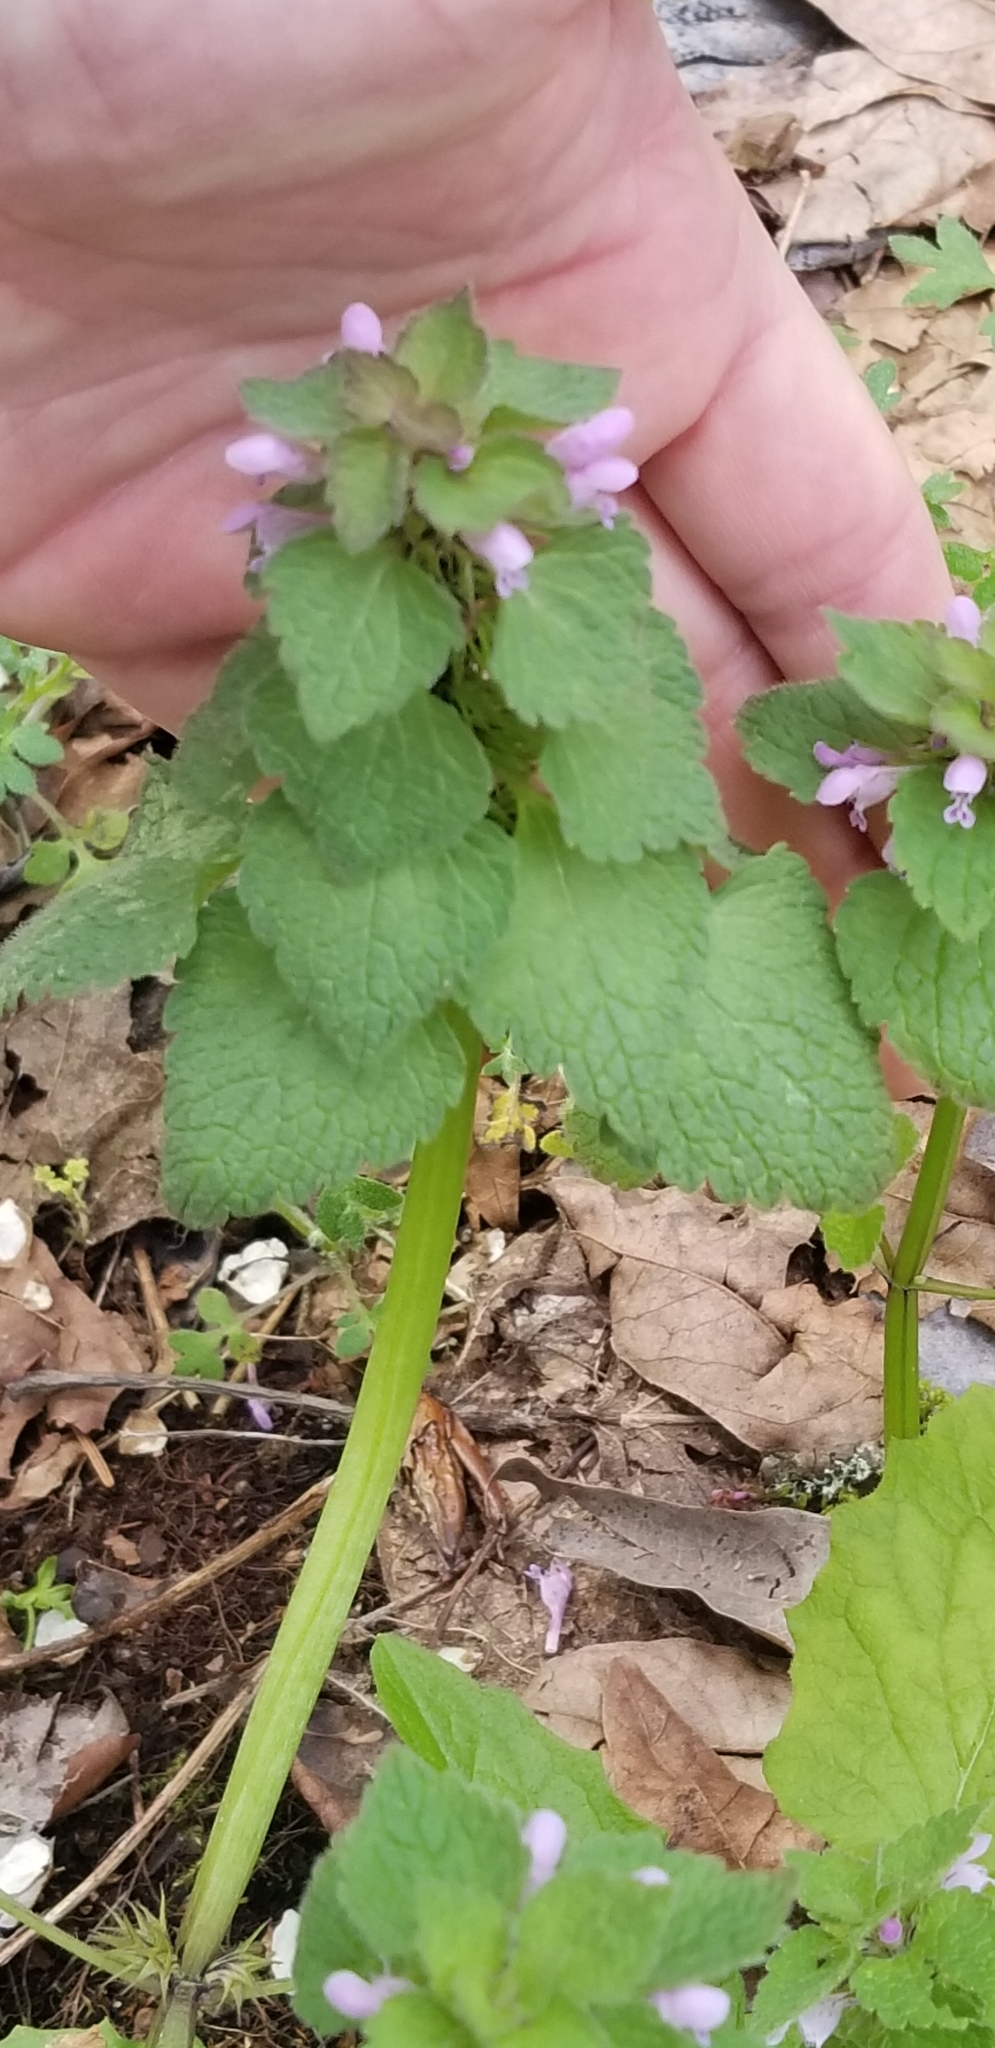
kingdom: Plantae
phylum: Tracheophyta
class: Magnoliopsida
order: Lamiales
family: Lamiaceae
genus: Lamium
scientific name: Lamium purpureum
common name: Red dead-nettle
